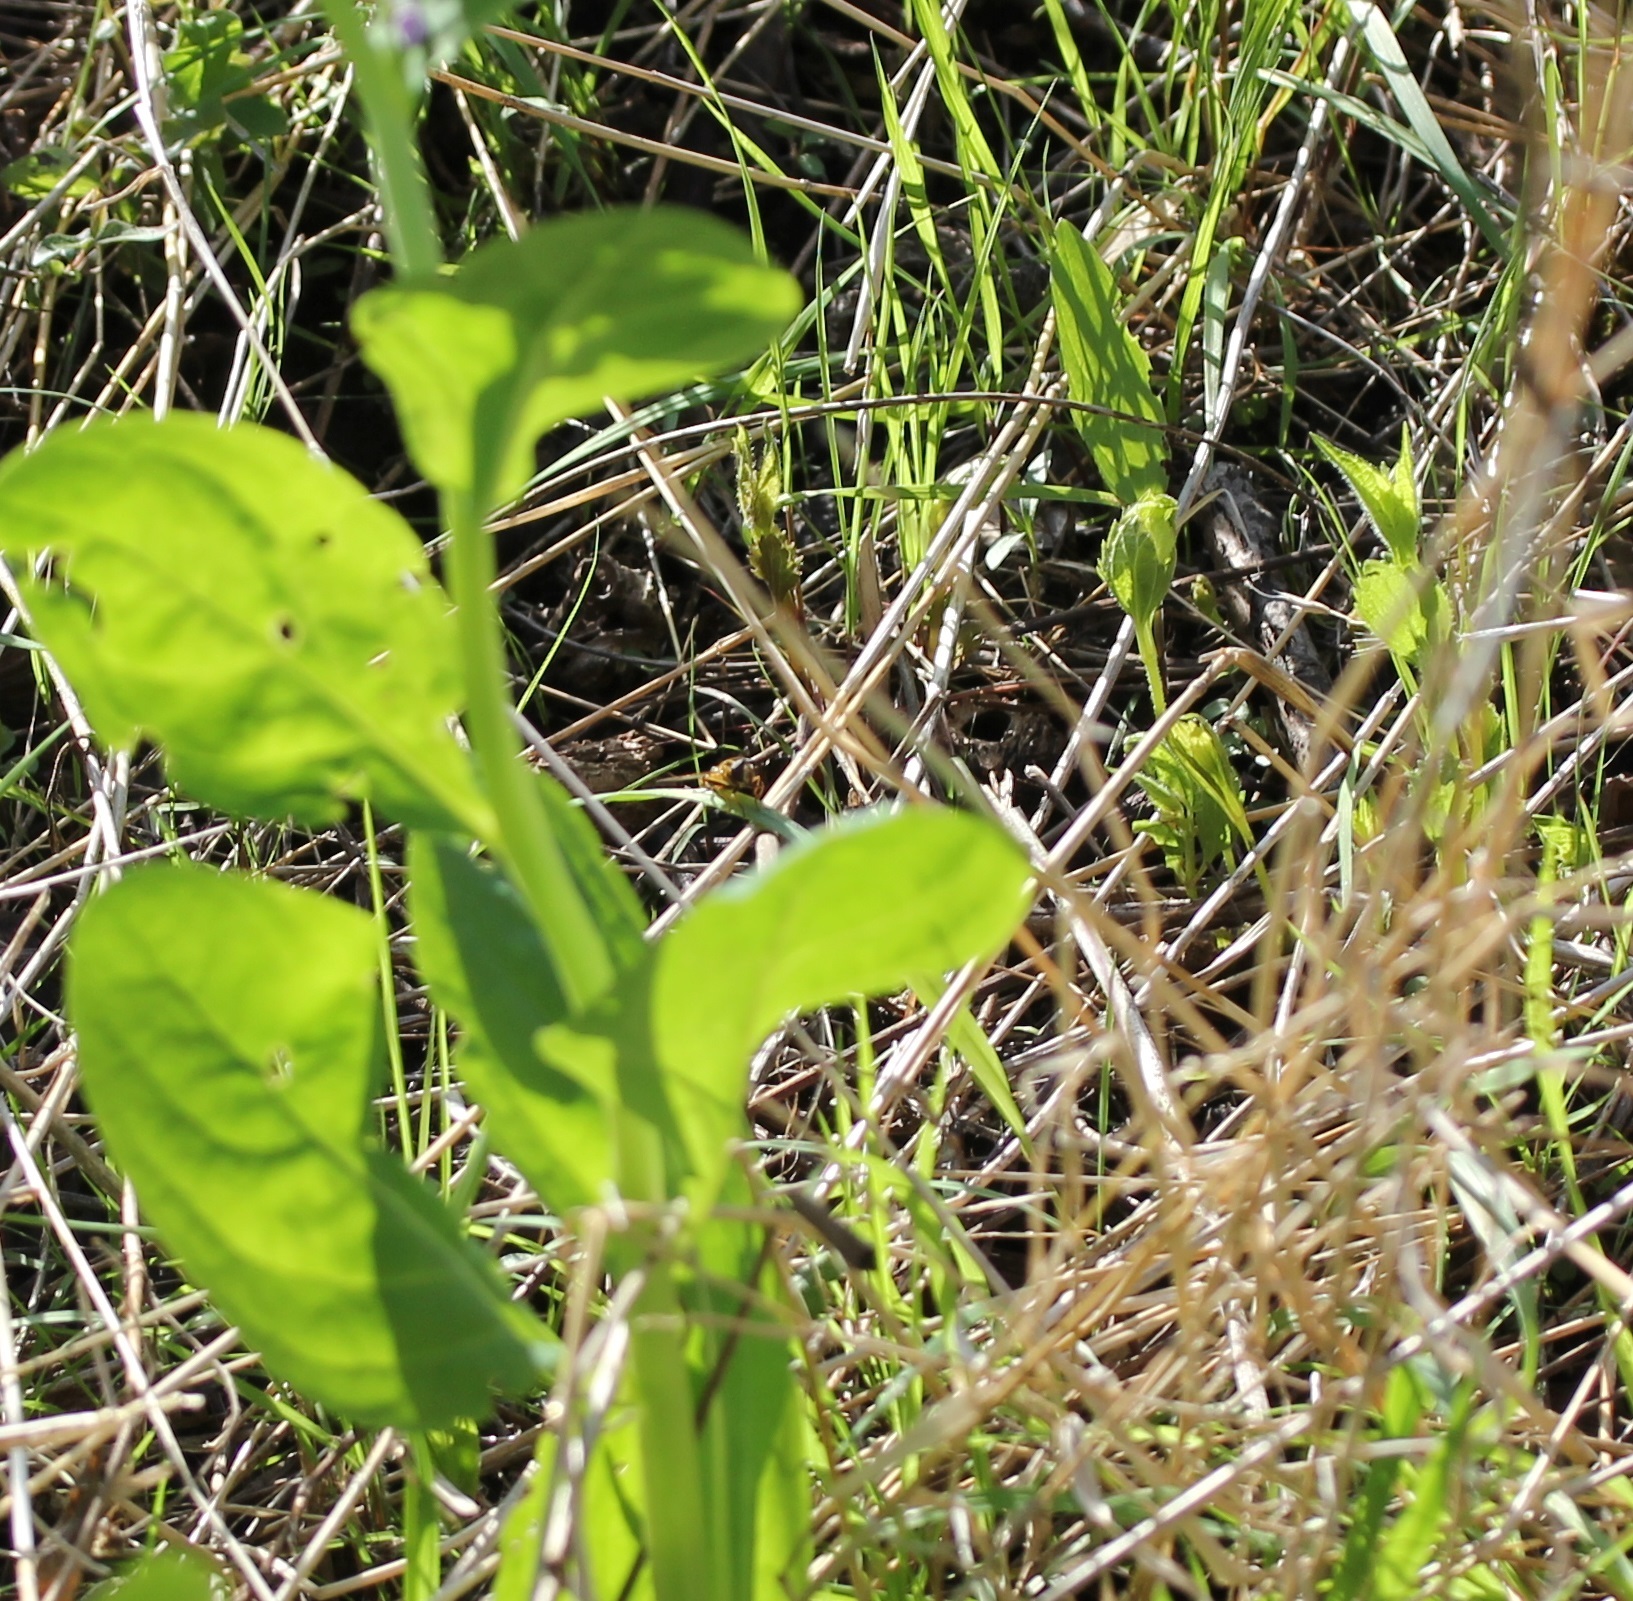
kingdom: Animalia
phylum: Arthropoda
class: Insecta
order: Diptera
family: Syrphidae
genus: Helophilus
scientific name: Helophilus fasciatus
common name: Narrow-headed marsh fly
